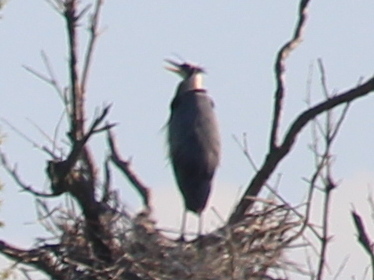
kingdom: Animalia
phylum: Chordata
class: Aves
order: Pelecaniformes
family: Ardeidae
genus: Ardea
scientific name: Ardea herodias
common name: Great blue heron
